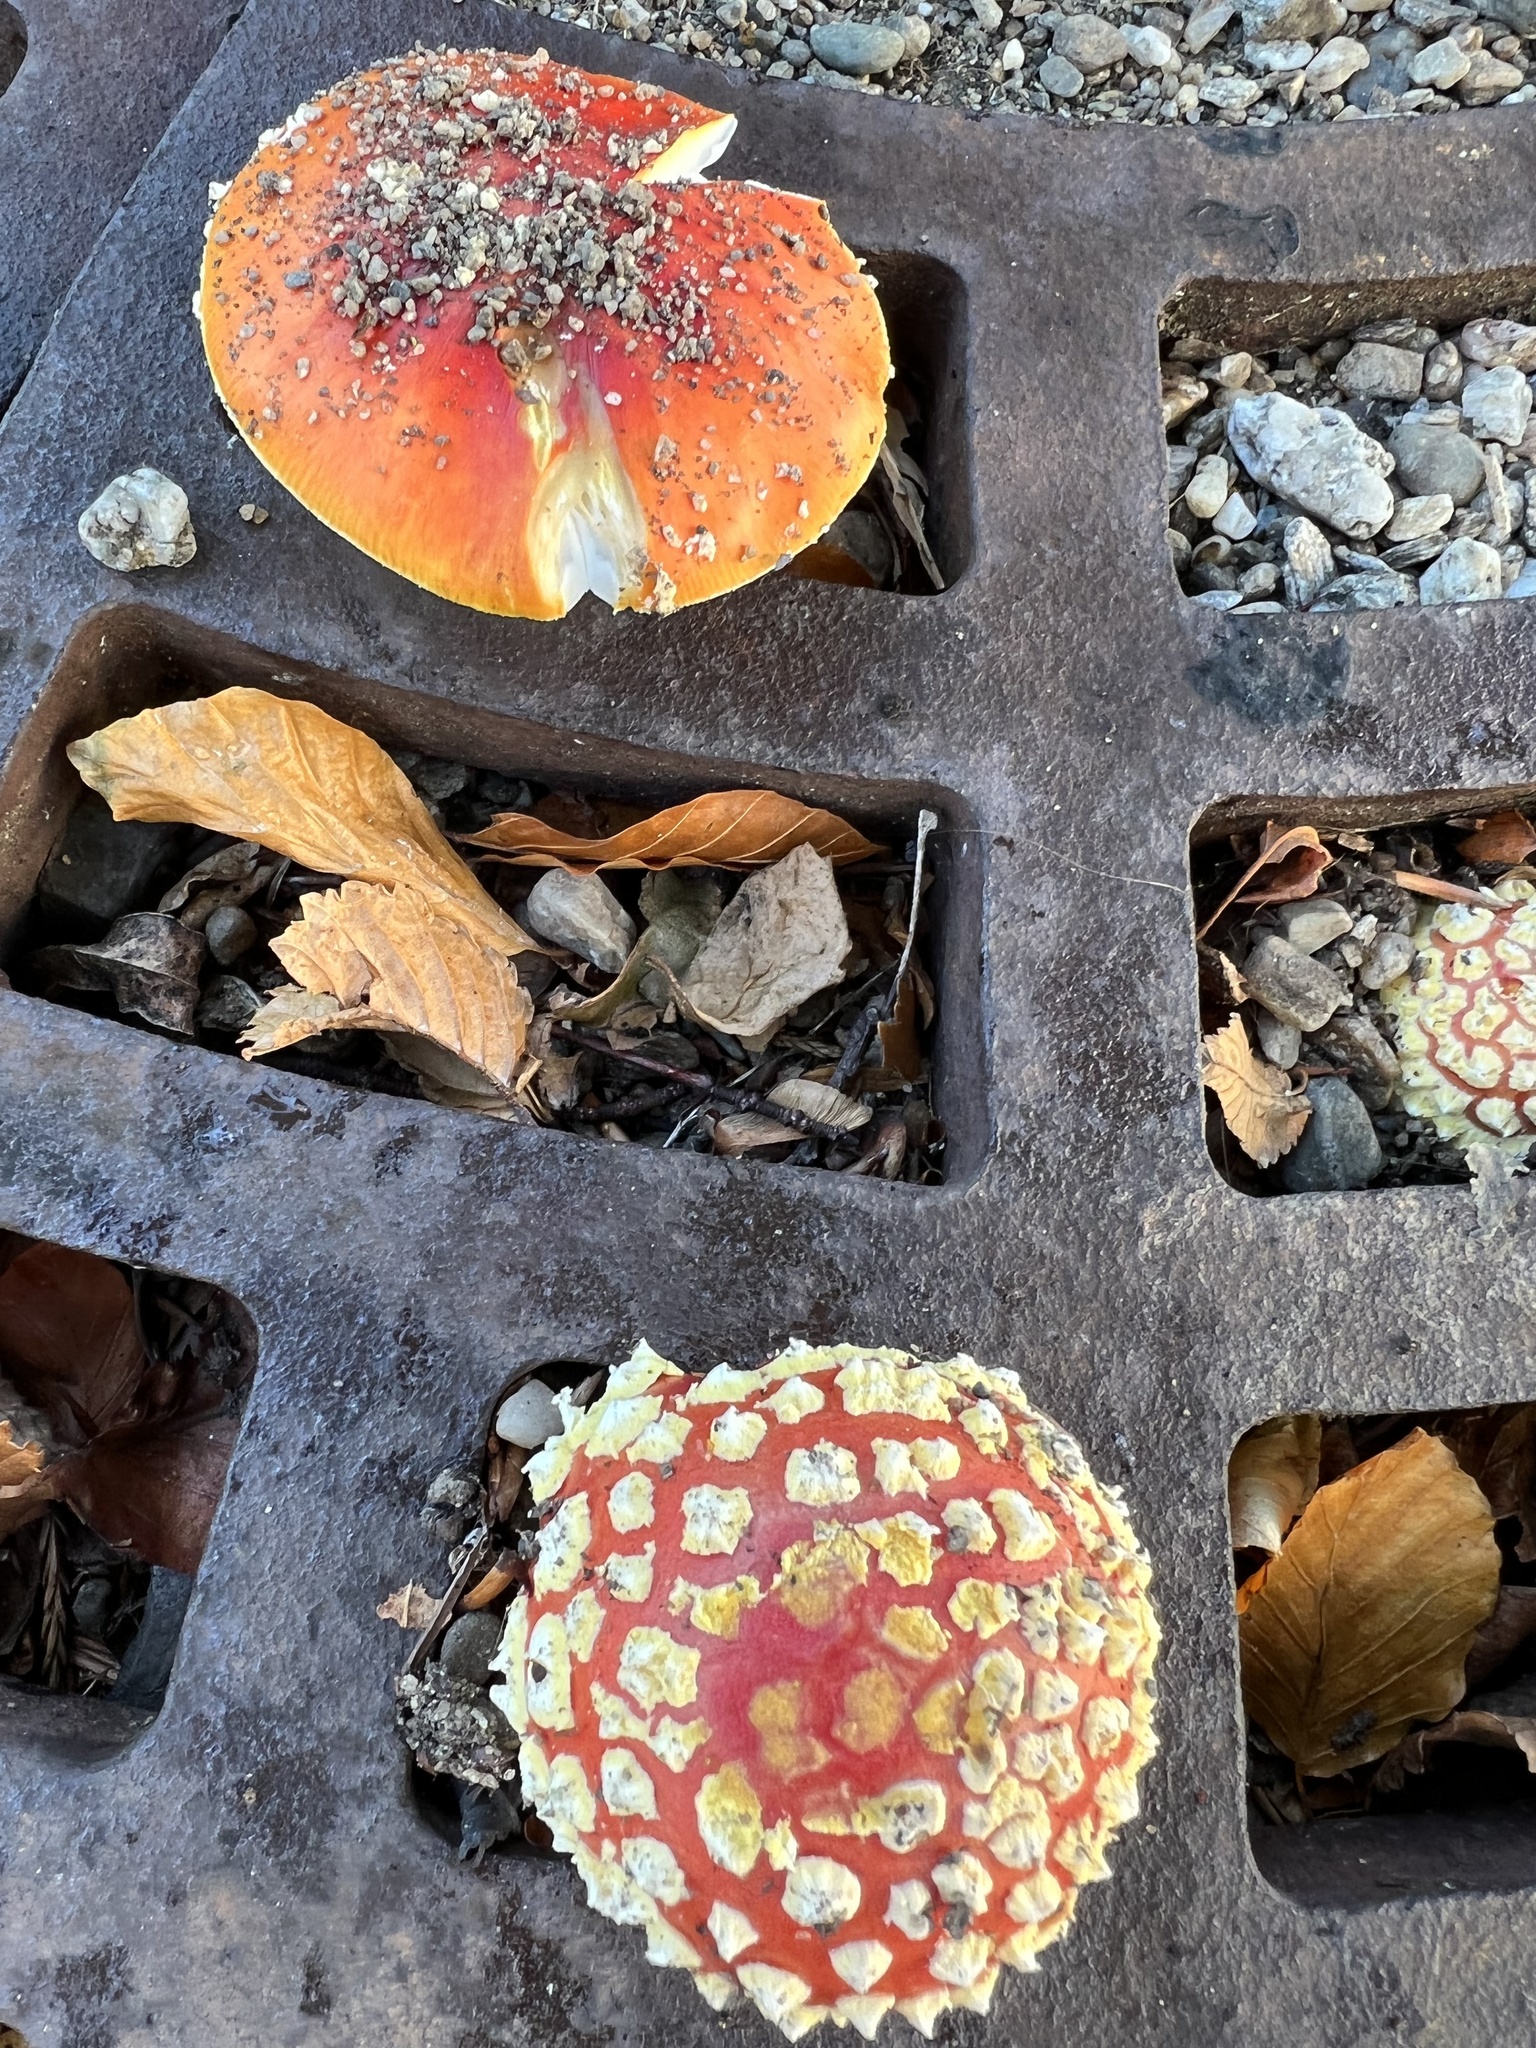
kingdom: Fungi
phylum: Basidiomycota
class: Agaricomycetes
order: Agaricales
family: Amanitaceae
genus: Amanita
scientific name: Amanita muscaria
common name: Fly agaric
